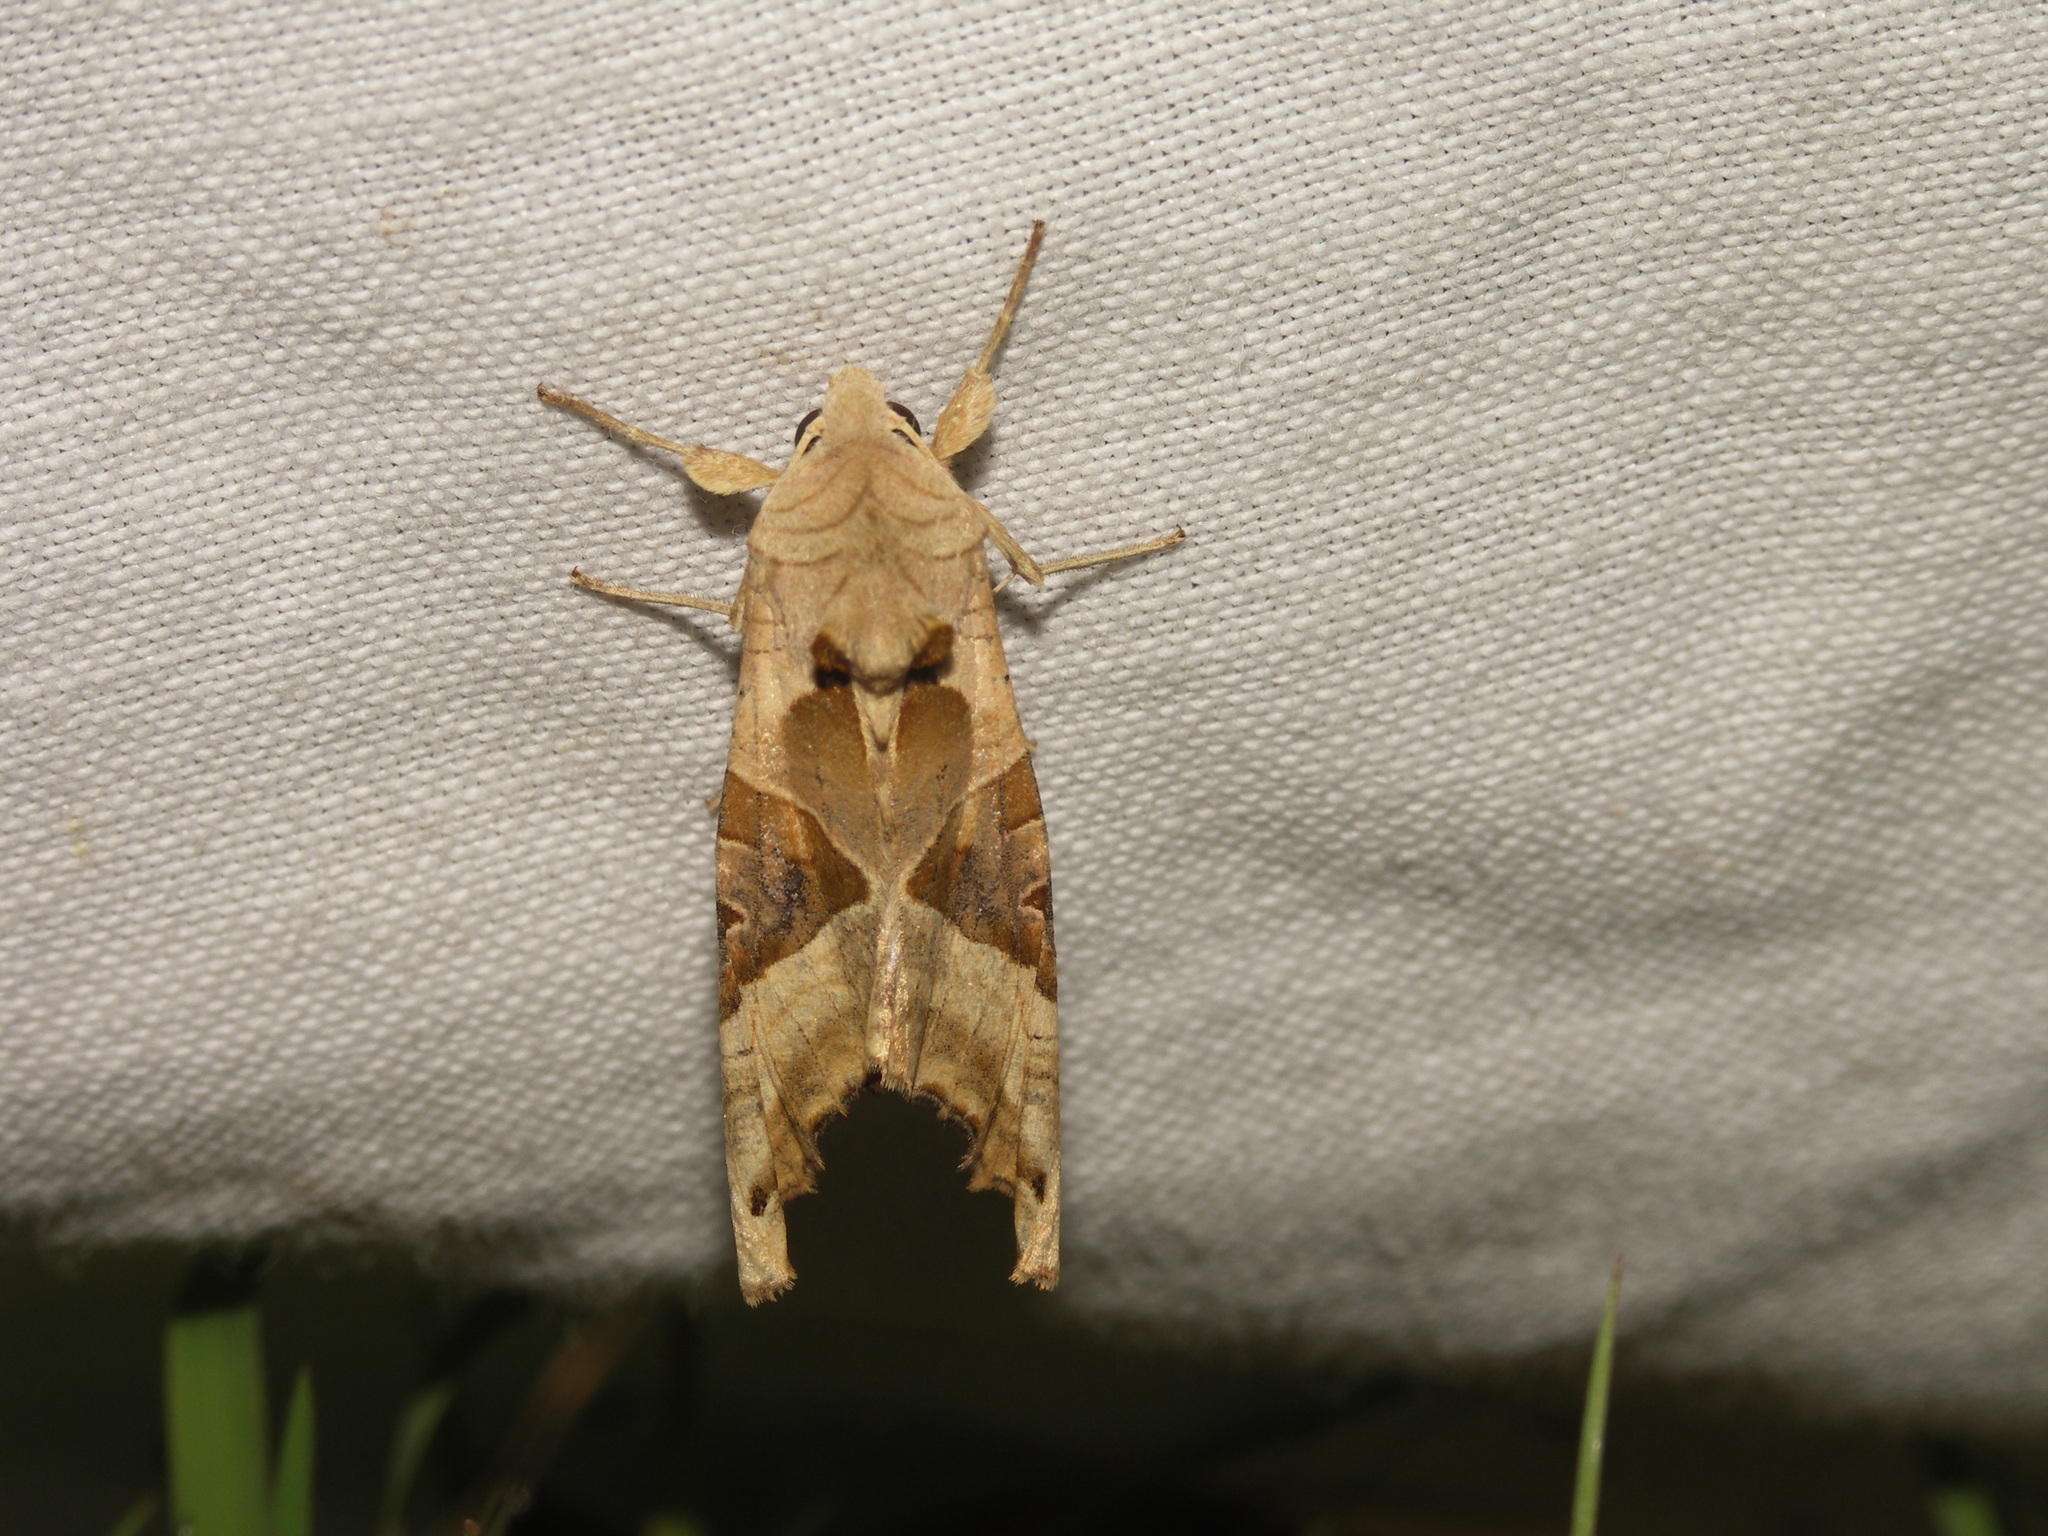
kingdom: Animalia
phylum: Arthropoda
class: Insecta
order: Lepidoptera
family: Noctuidae
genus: Phlogophora
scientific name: Phlogophora meticulosa
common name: Angle shades
